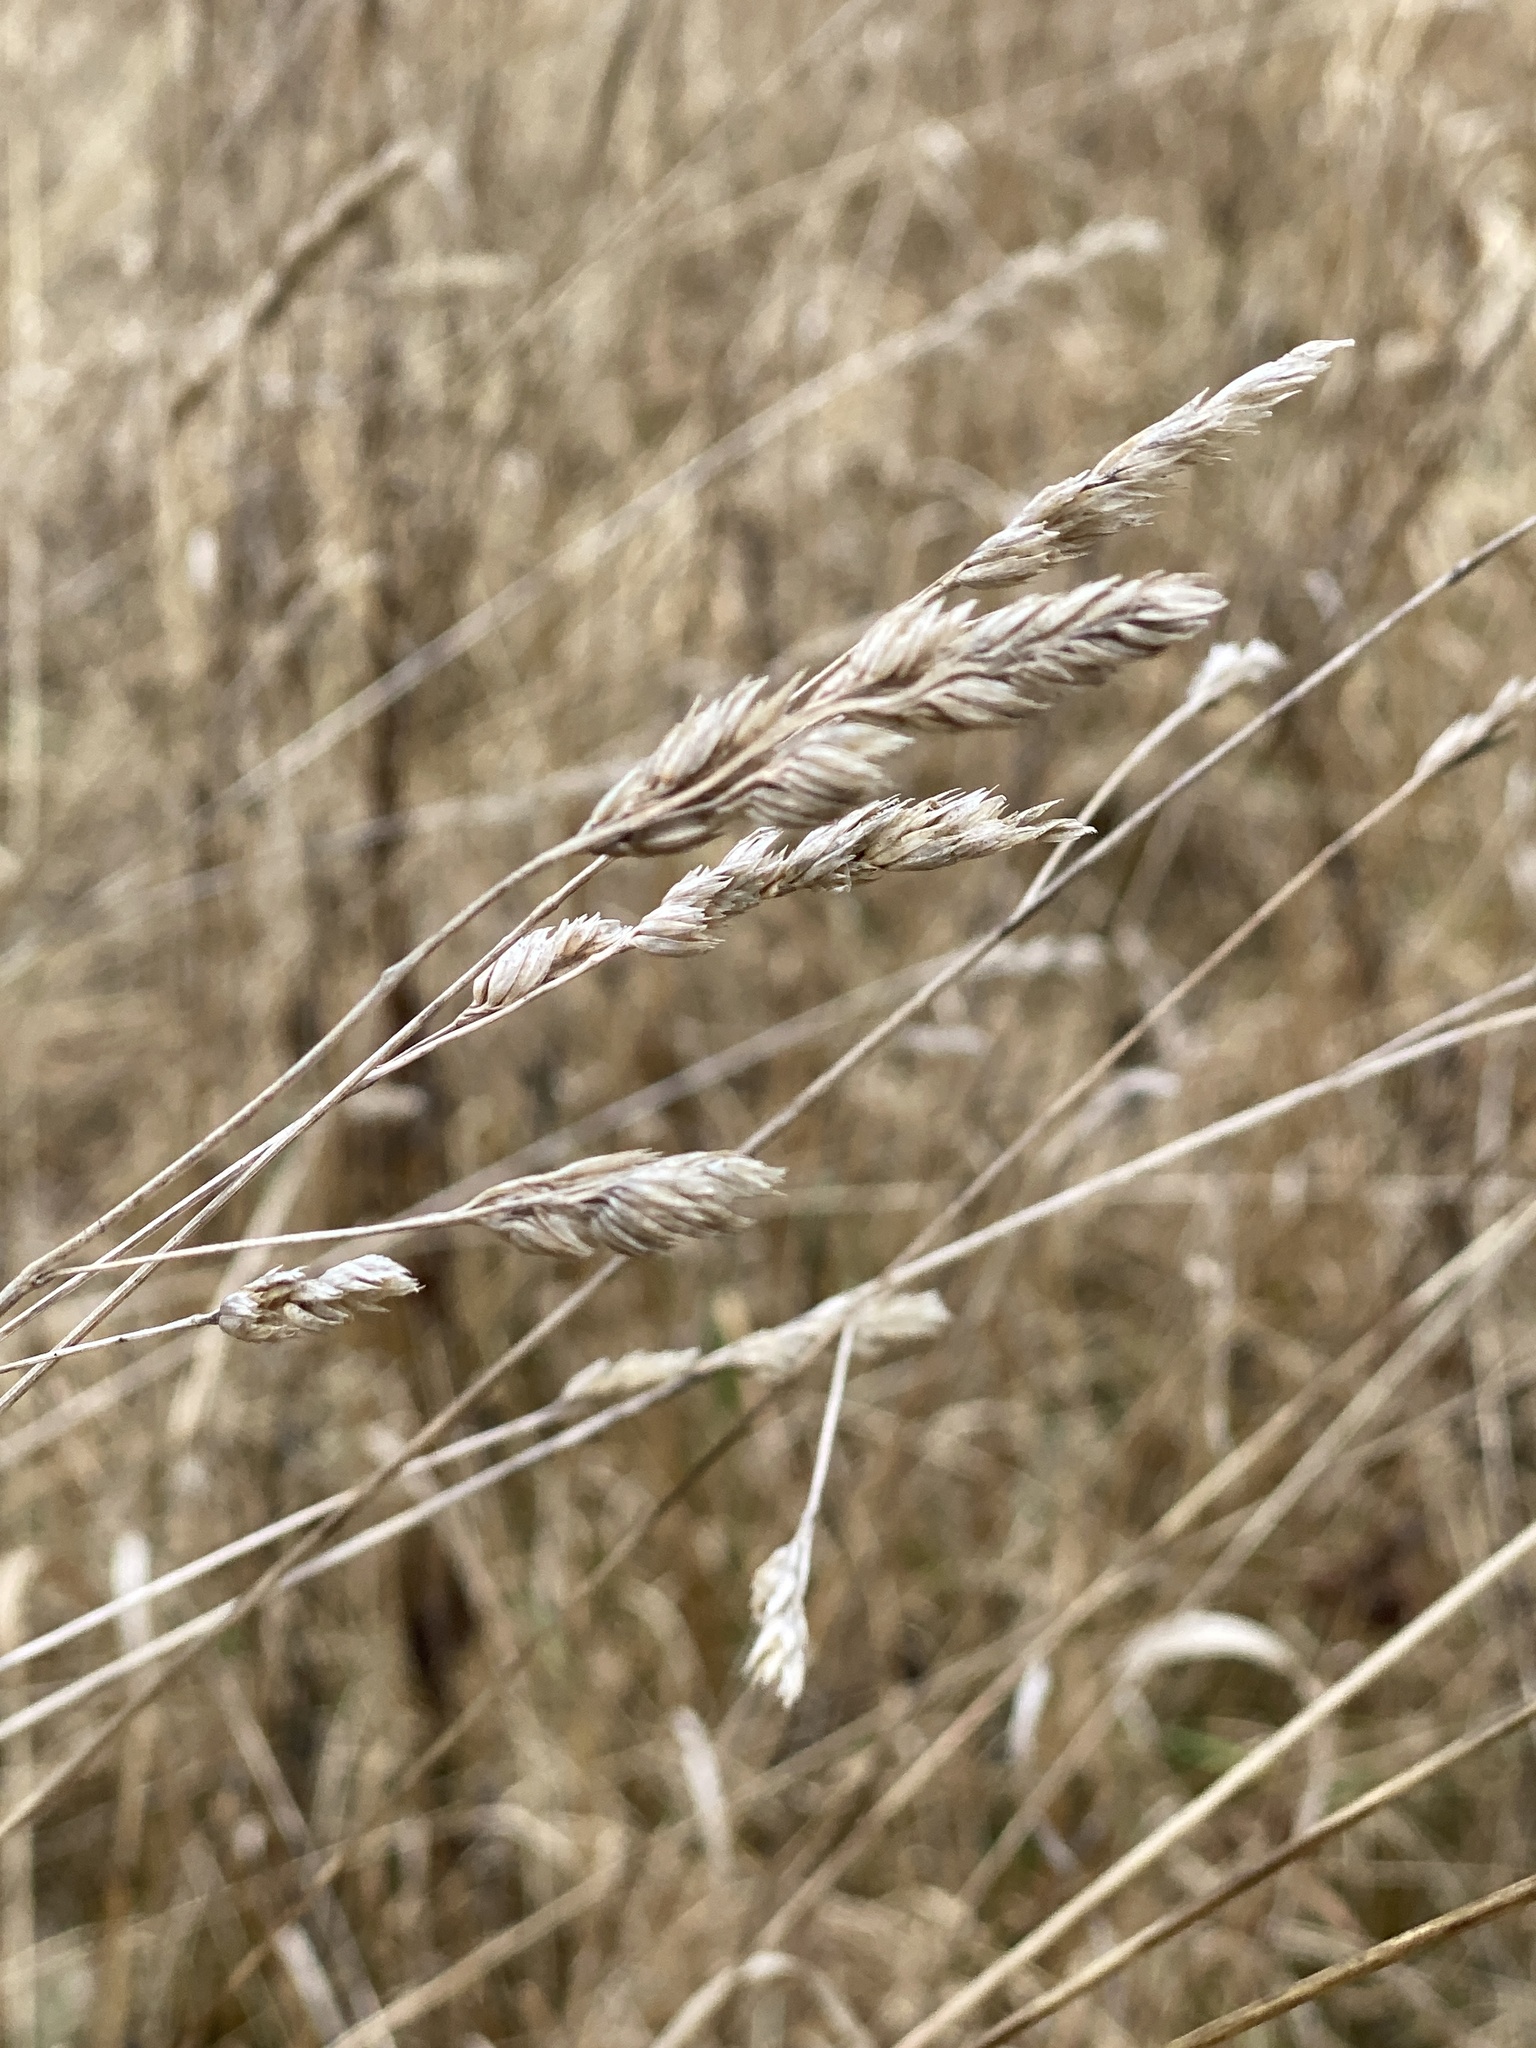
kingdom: Plantae
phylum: Tracheophyta
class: Liliopsida
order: Poales
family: Poaceae
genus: Dactylis
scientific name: Dactylis glomerata
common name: Orchardgrass
